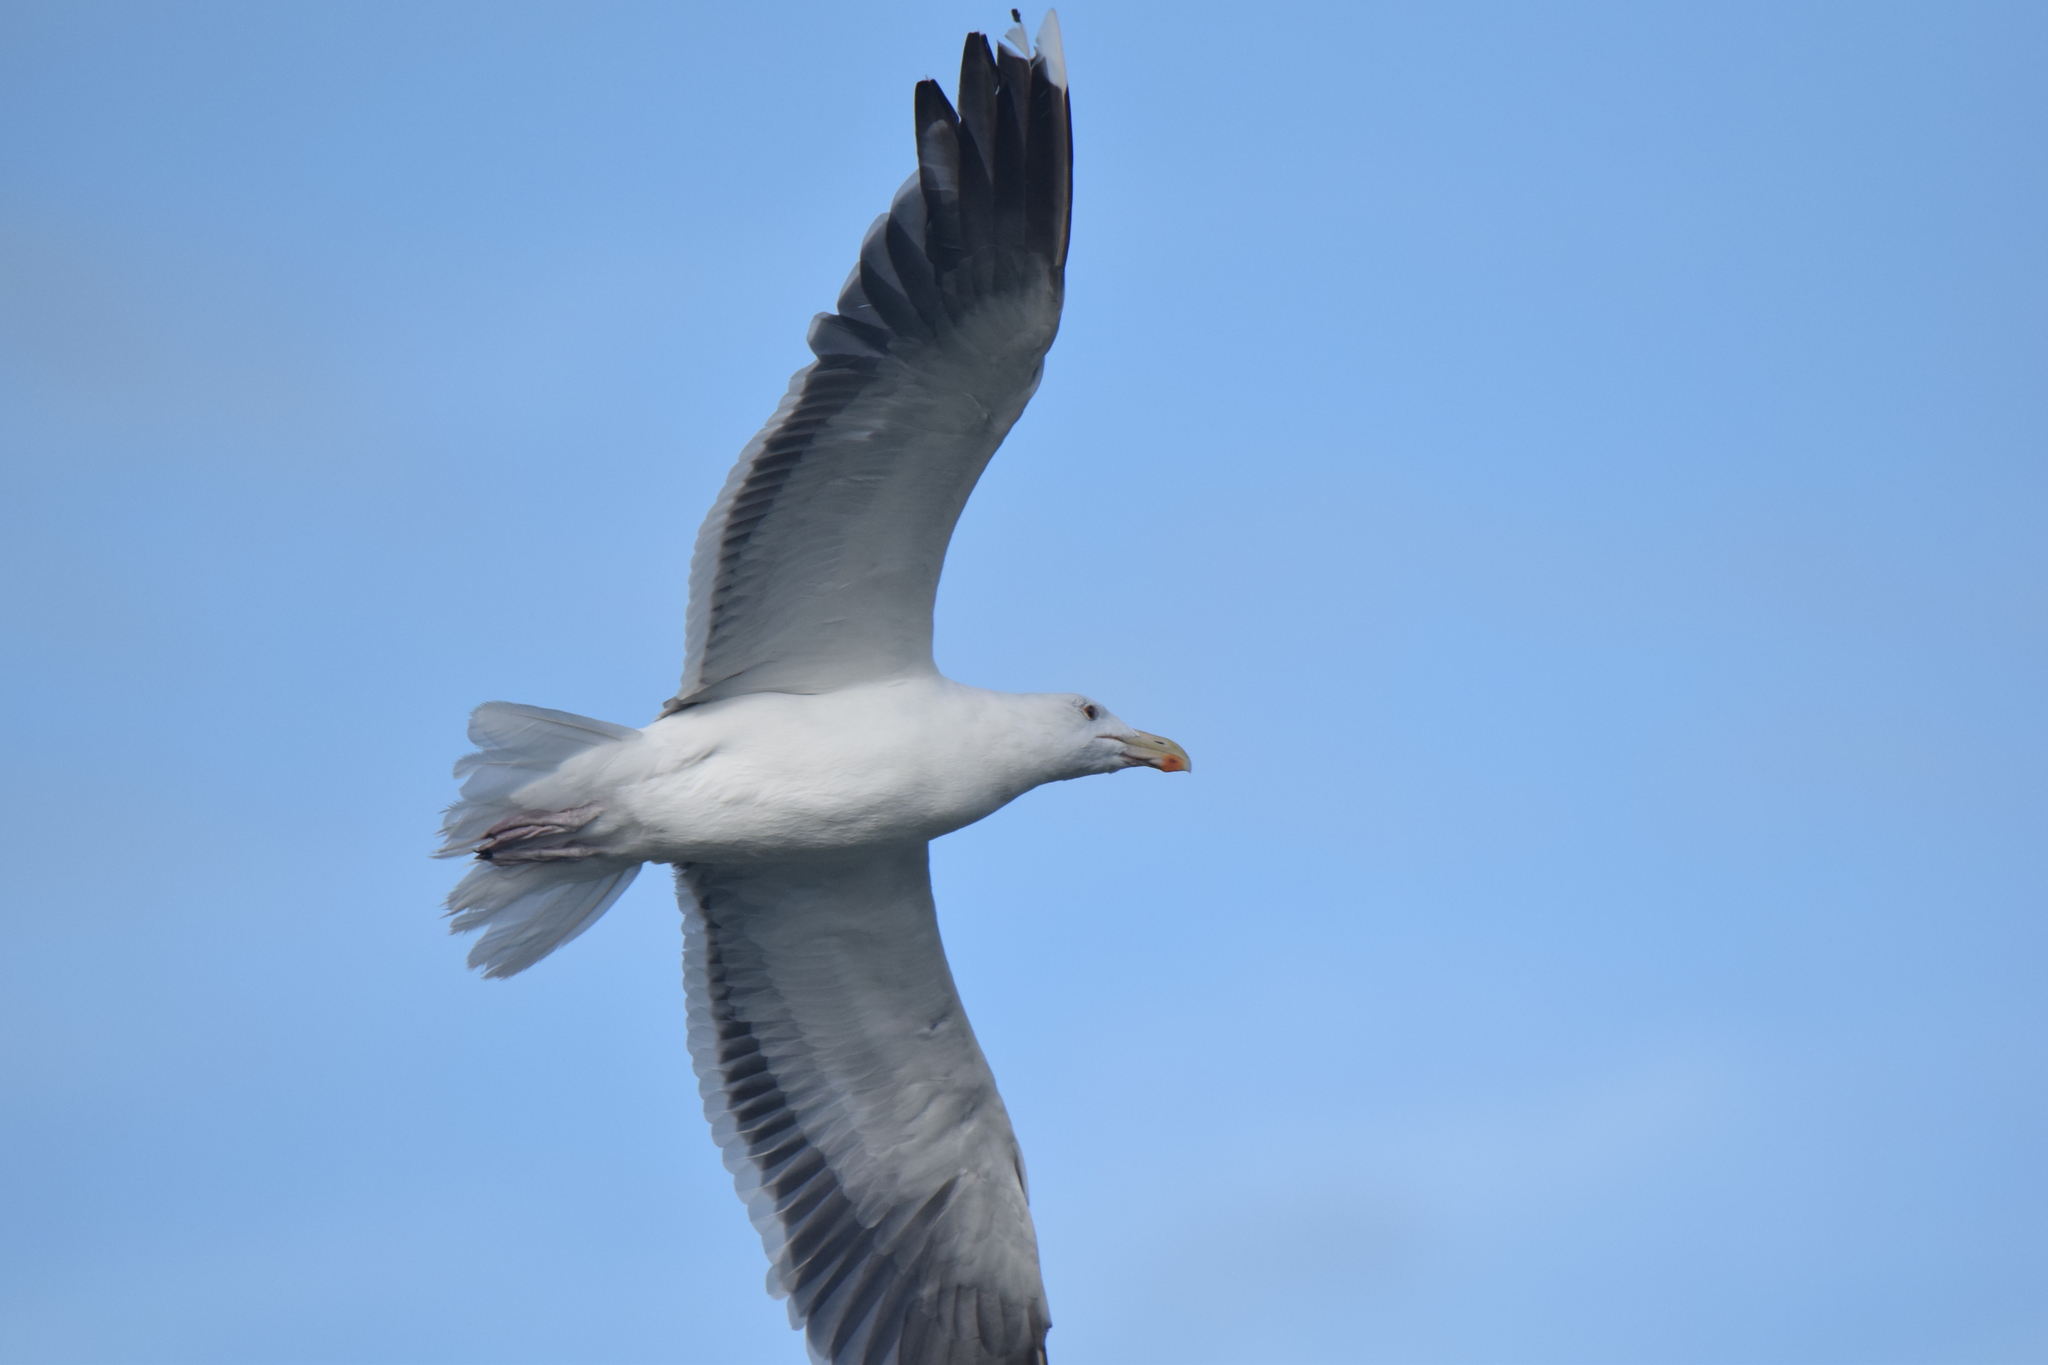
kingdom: Animalia
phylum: Chordata
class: Aves
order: Charadriiformes
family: Laridae
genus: Larus
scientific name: Larus marinus
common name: Great black-backed gull
